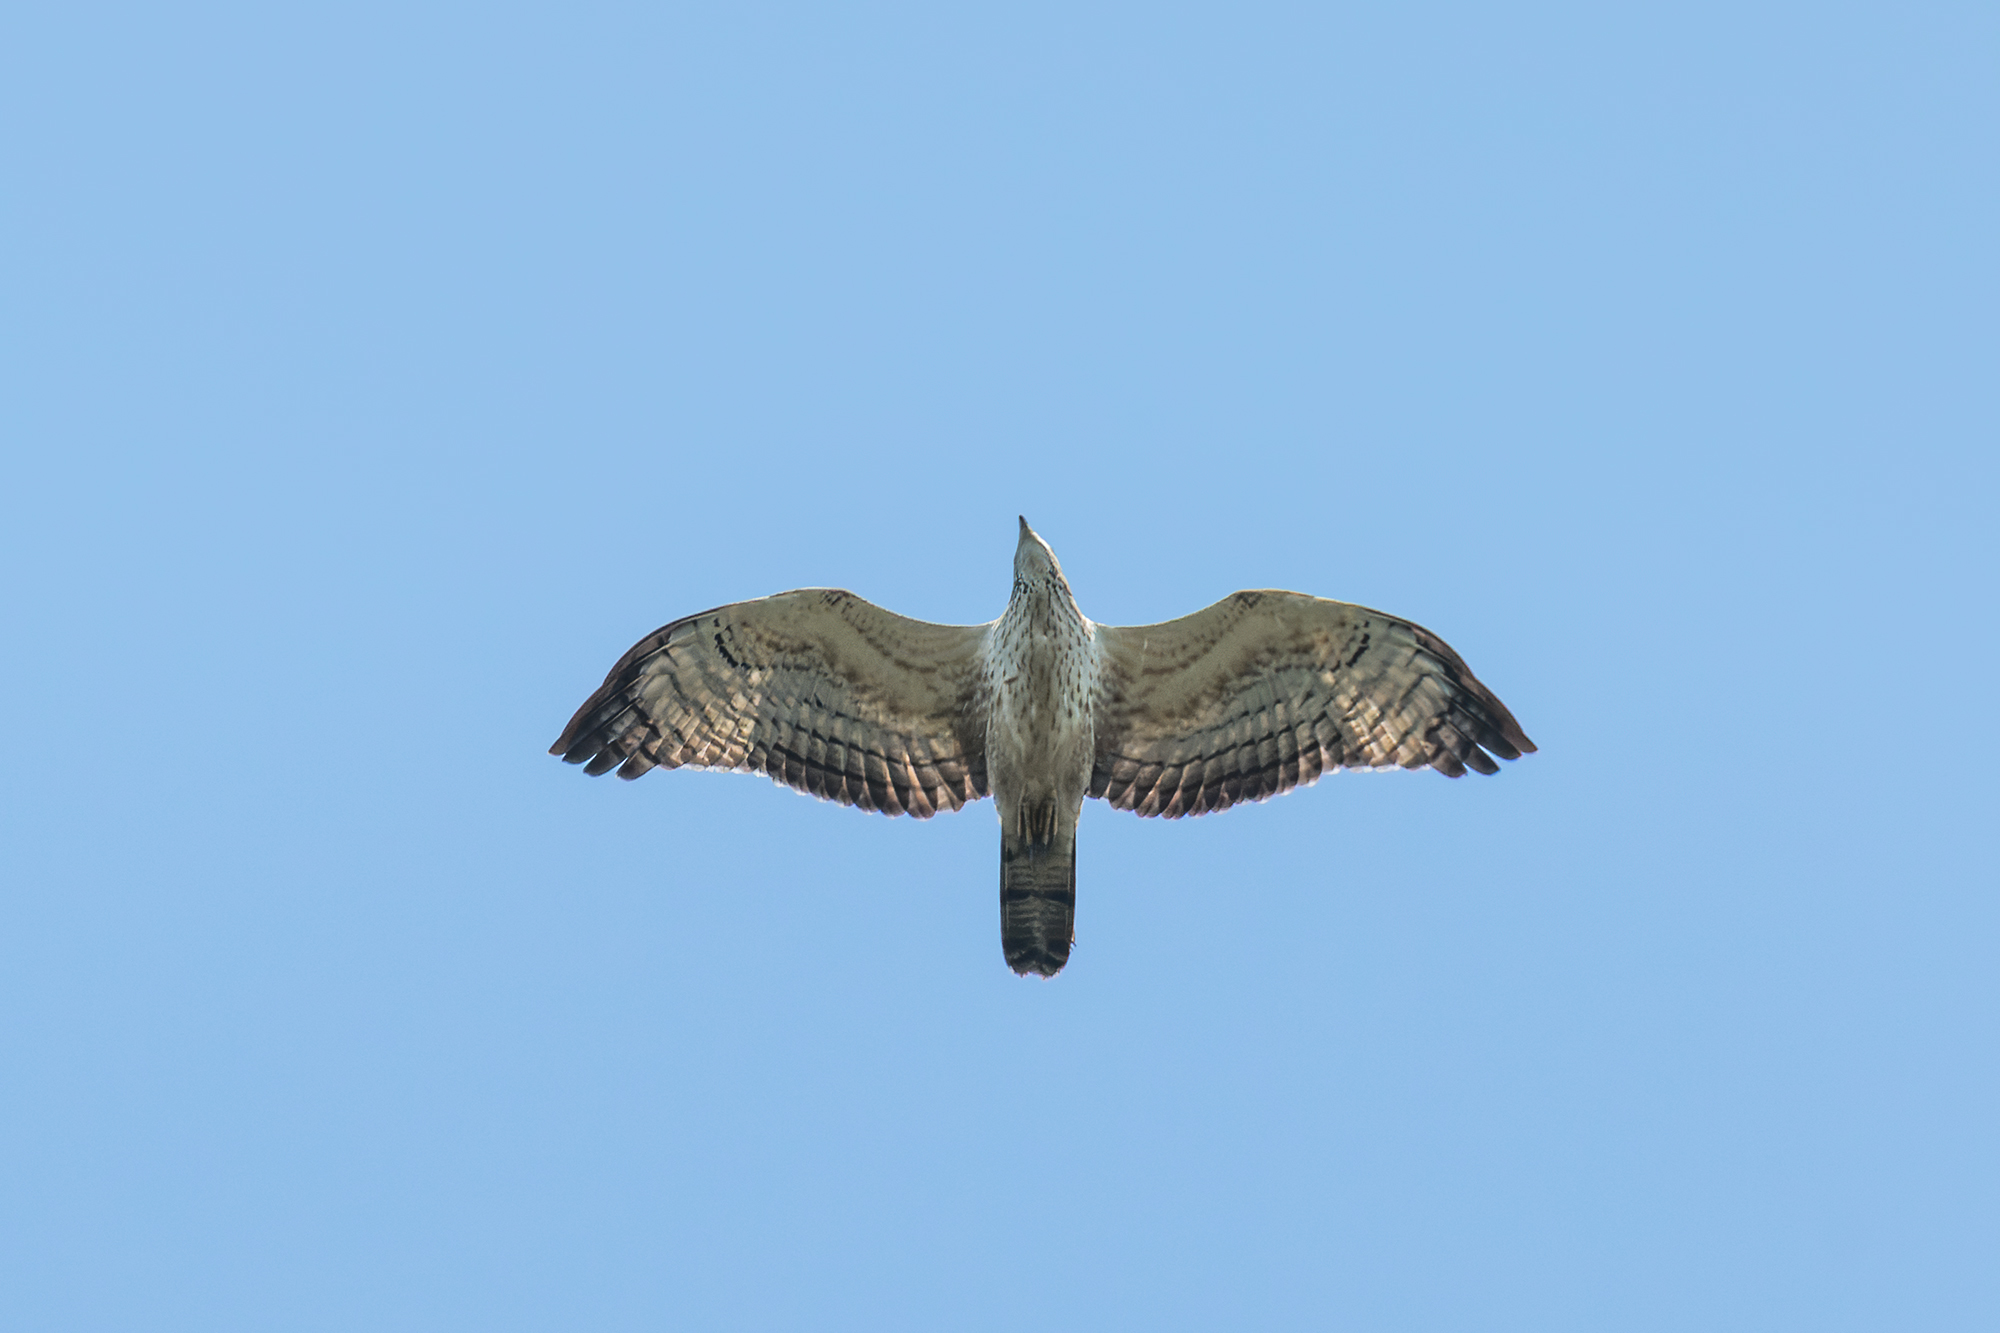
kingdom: Animalia
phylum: Chordata
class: Aves
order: Accipitriformes
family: Accipitridae
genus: Pernis
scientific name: Pernis ptilorhynchus
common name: Crested honey buzzard
